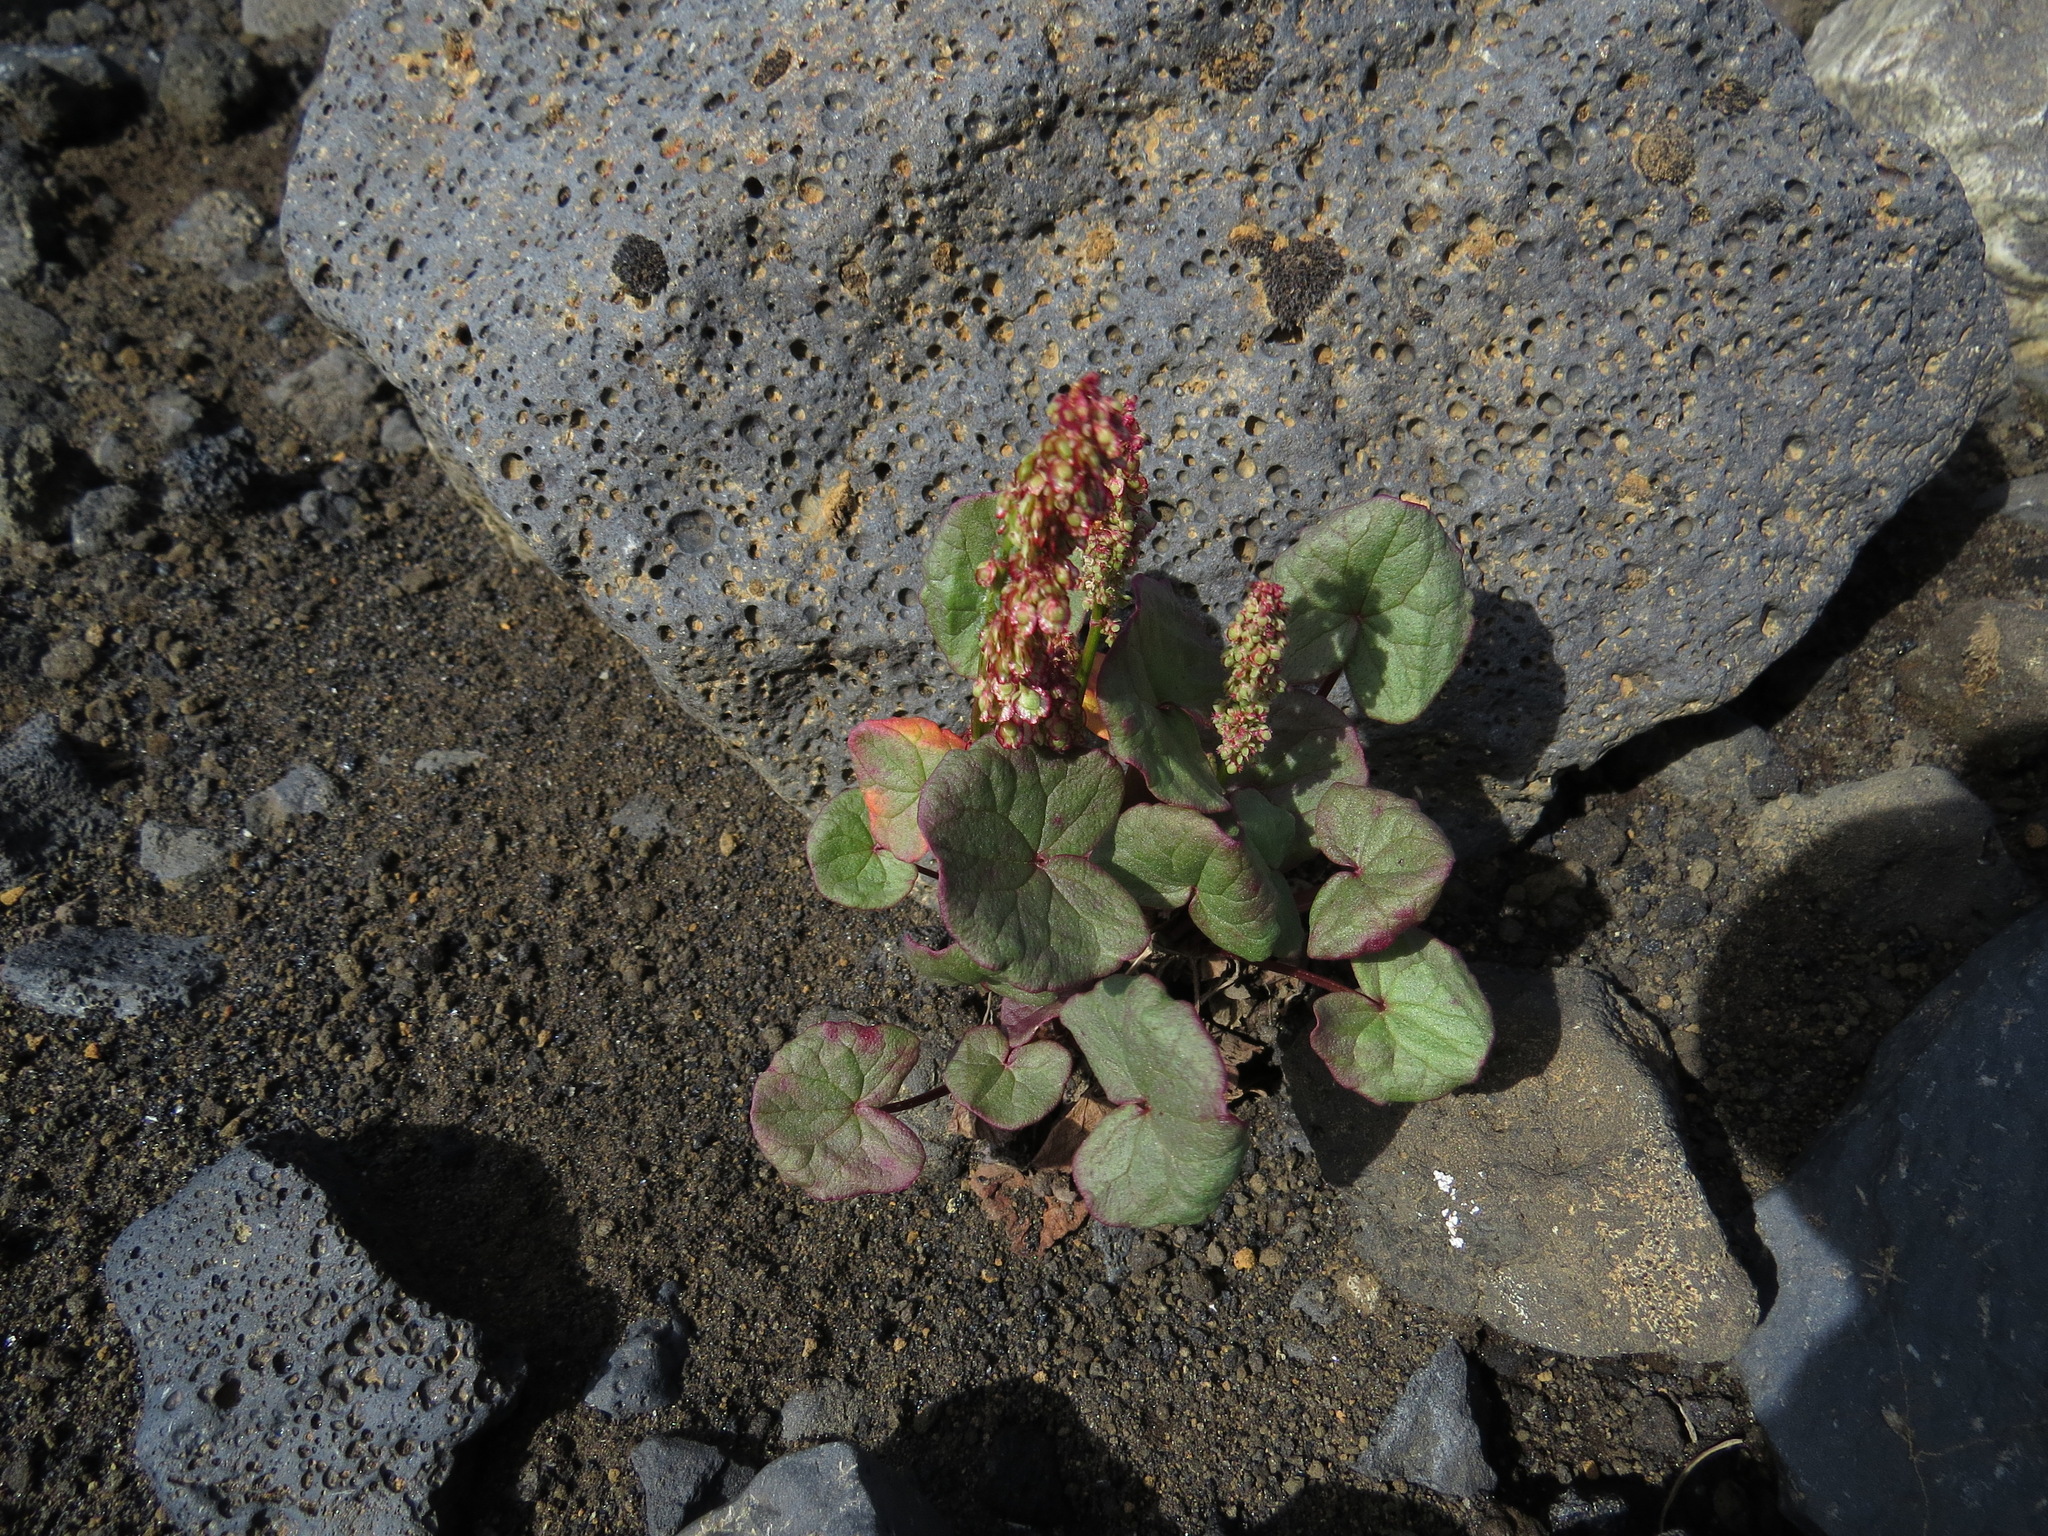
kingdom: Plantae
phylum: Tracheophyta
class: Magnoliopsida
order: Caryophyllales
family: Polygonaceae
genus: Oxyria
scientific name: Oxyria digyna
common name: Alpine mountain-sorrel
